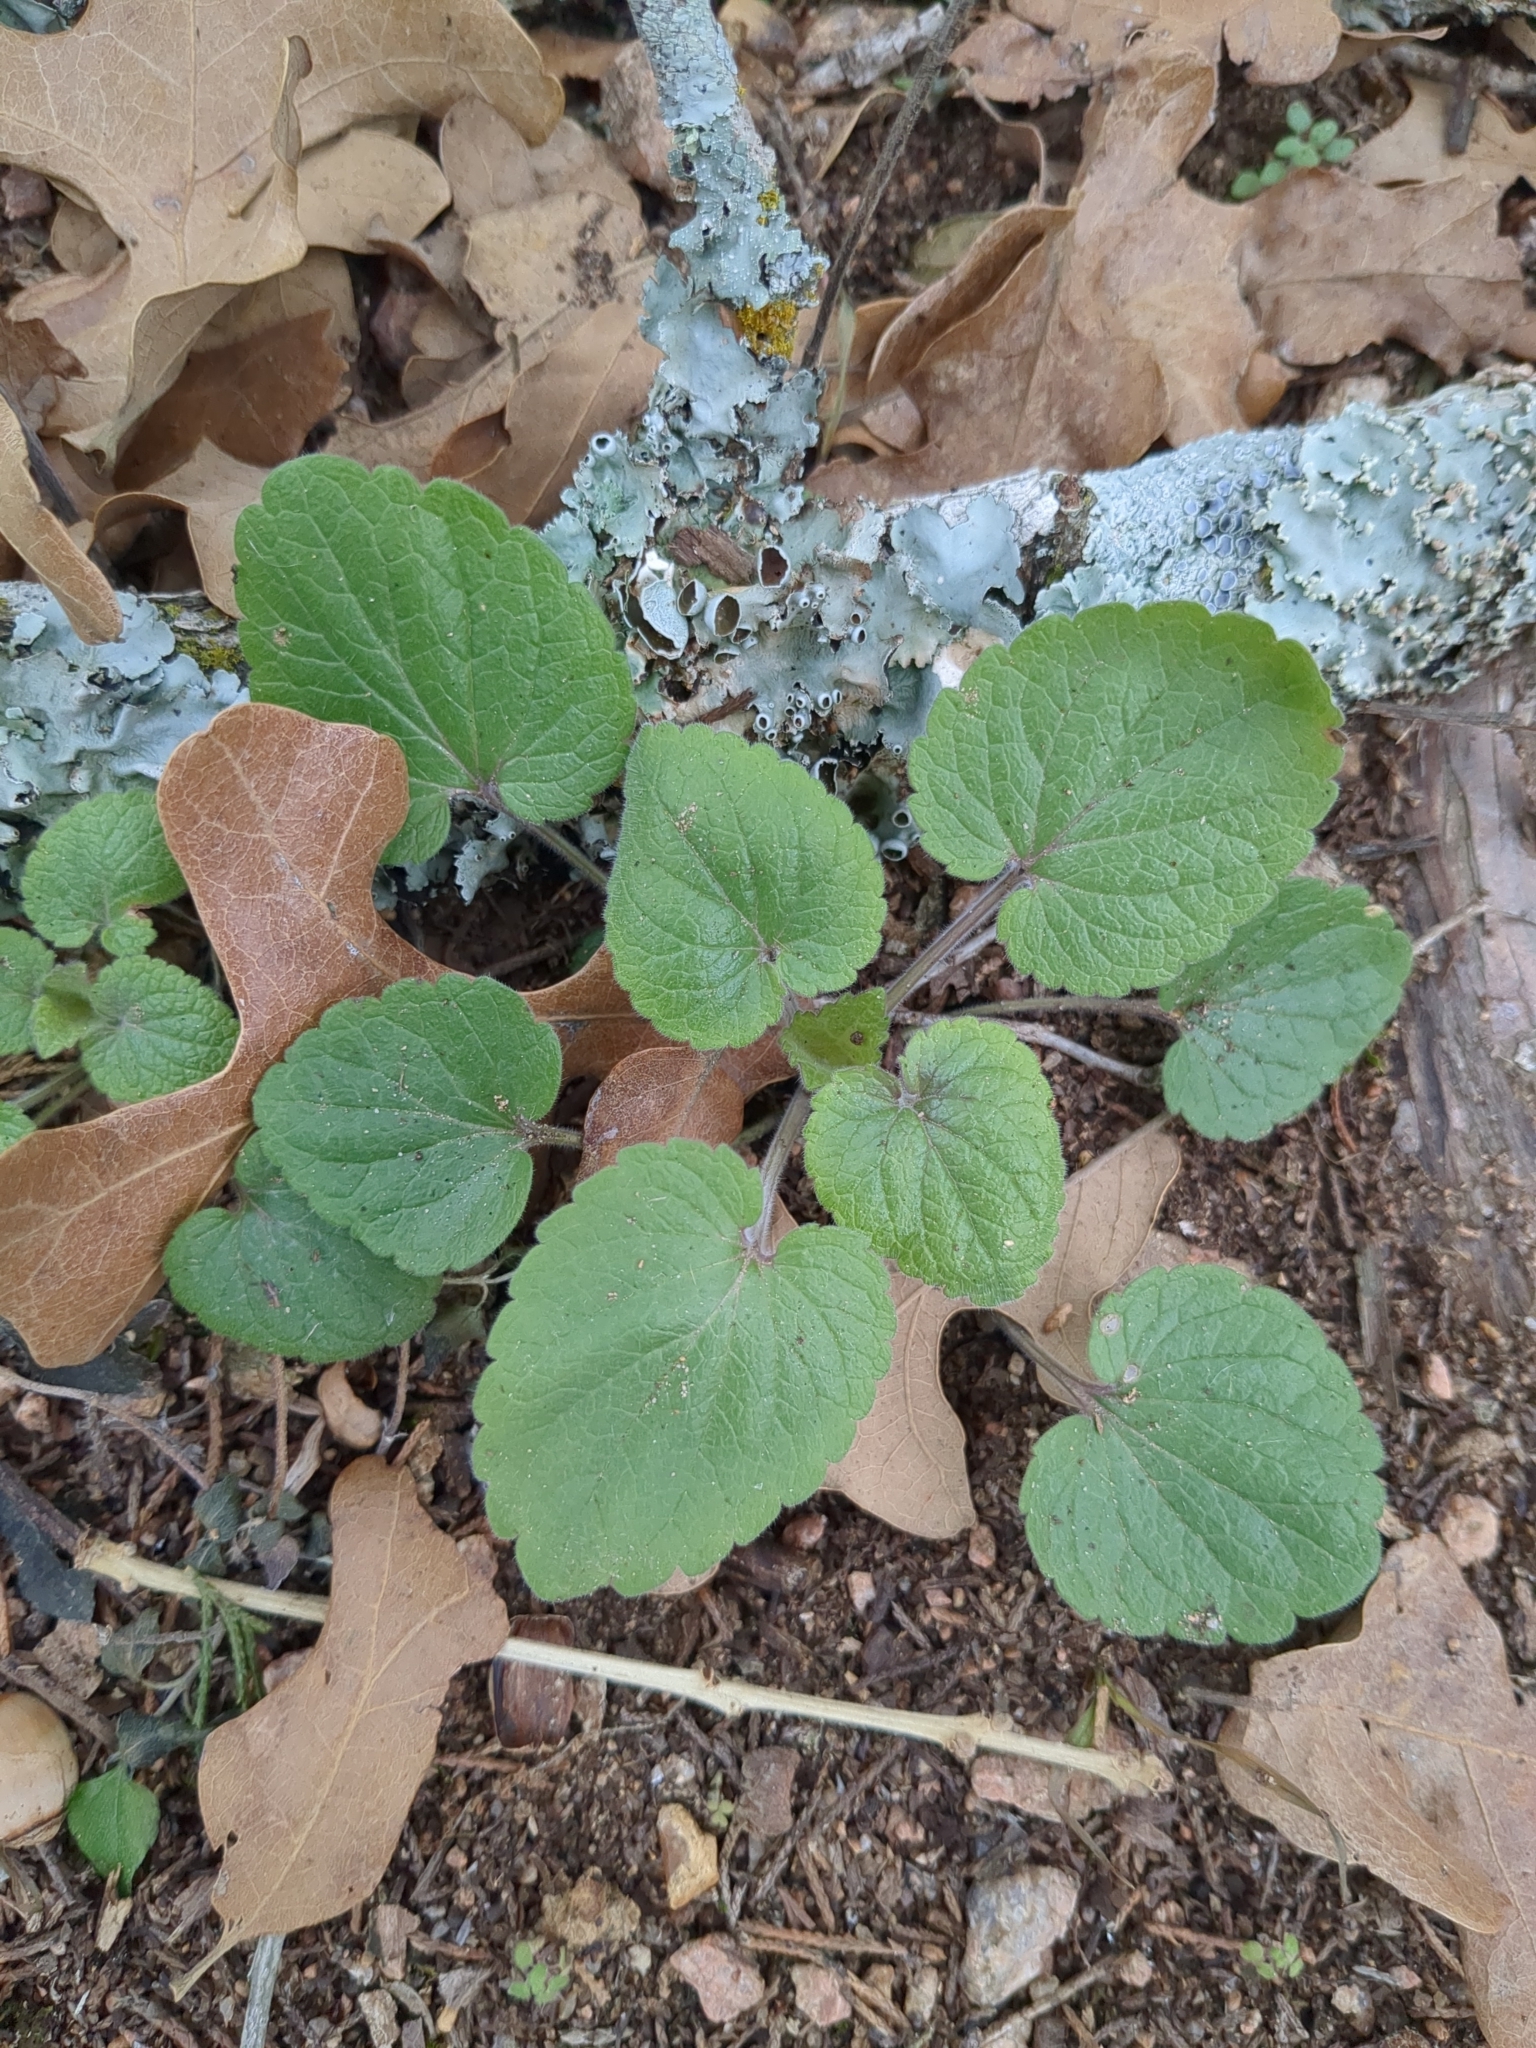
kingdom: Plantae
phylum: Tracheophyta
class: Magnoliopsida
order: Lamiales
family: Lamiaceae
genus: Scutellaria
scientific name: Scutellaria ovata
